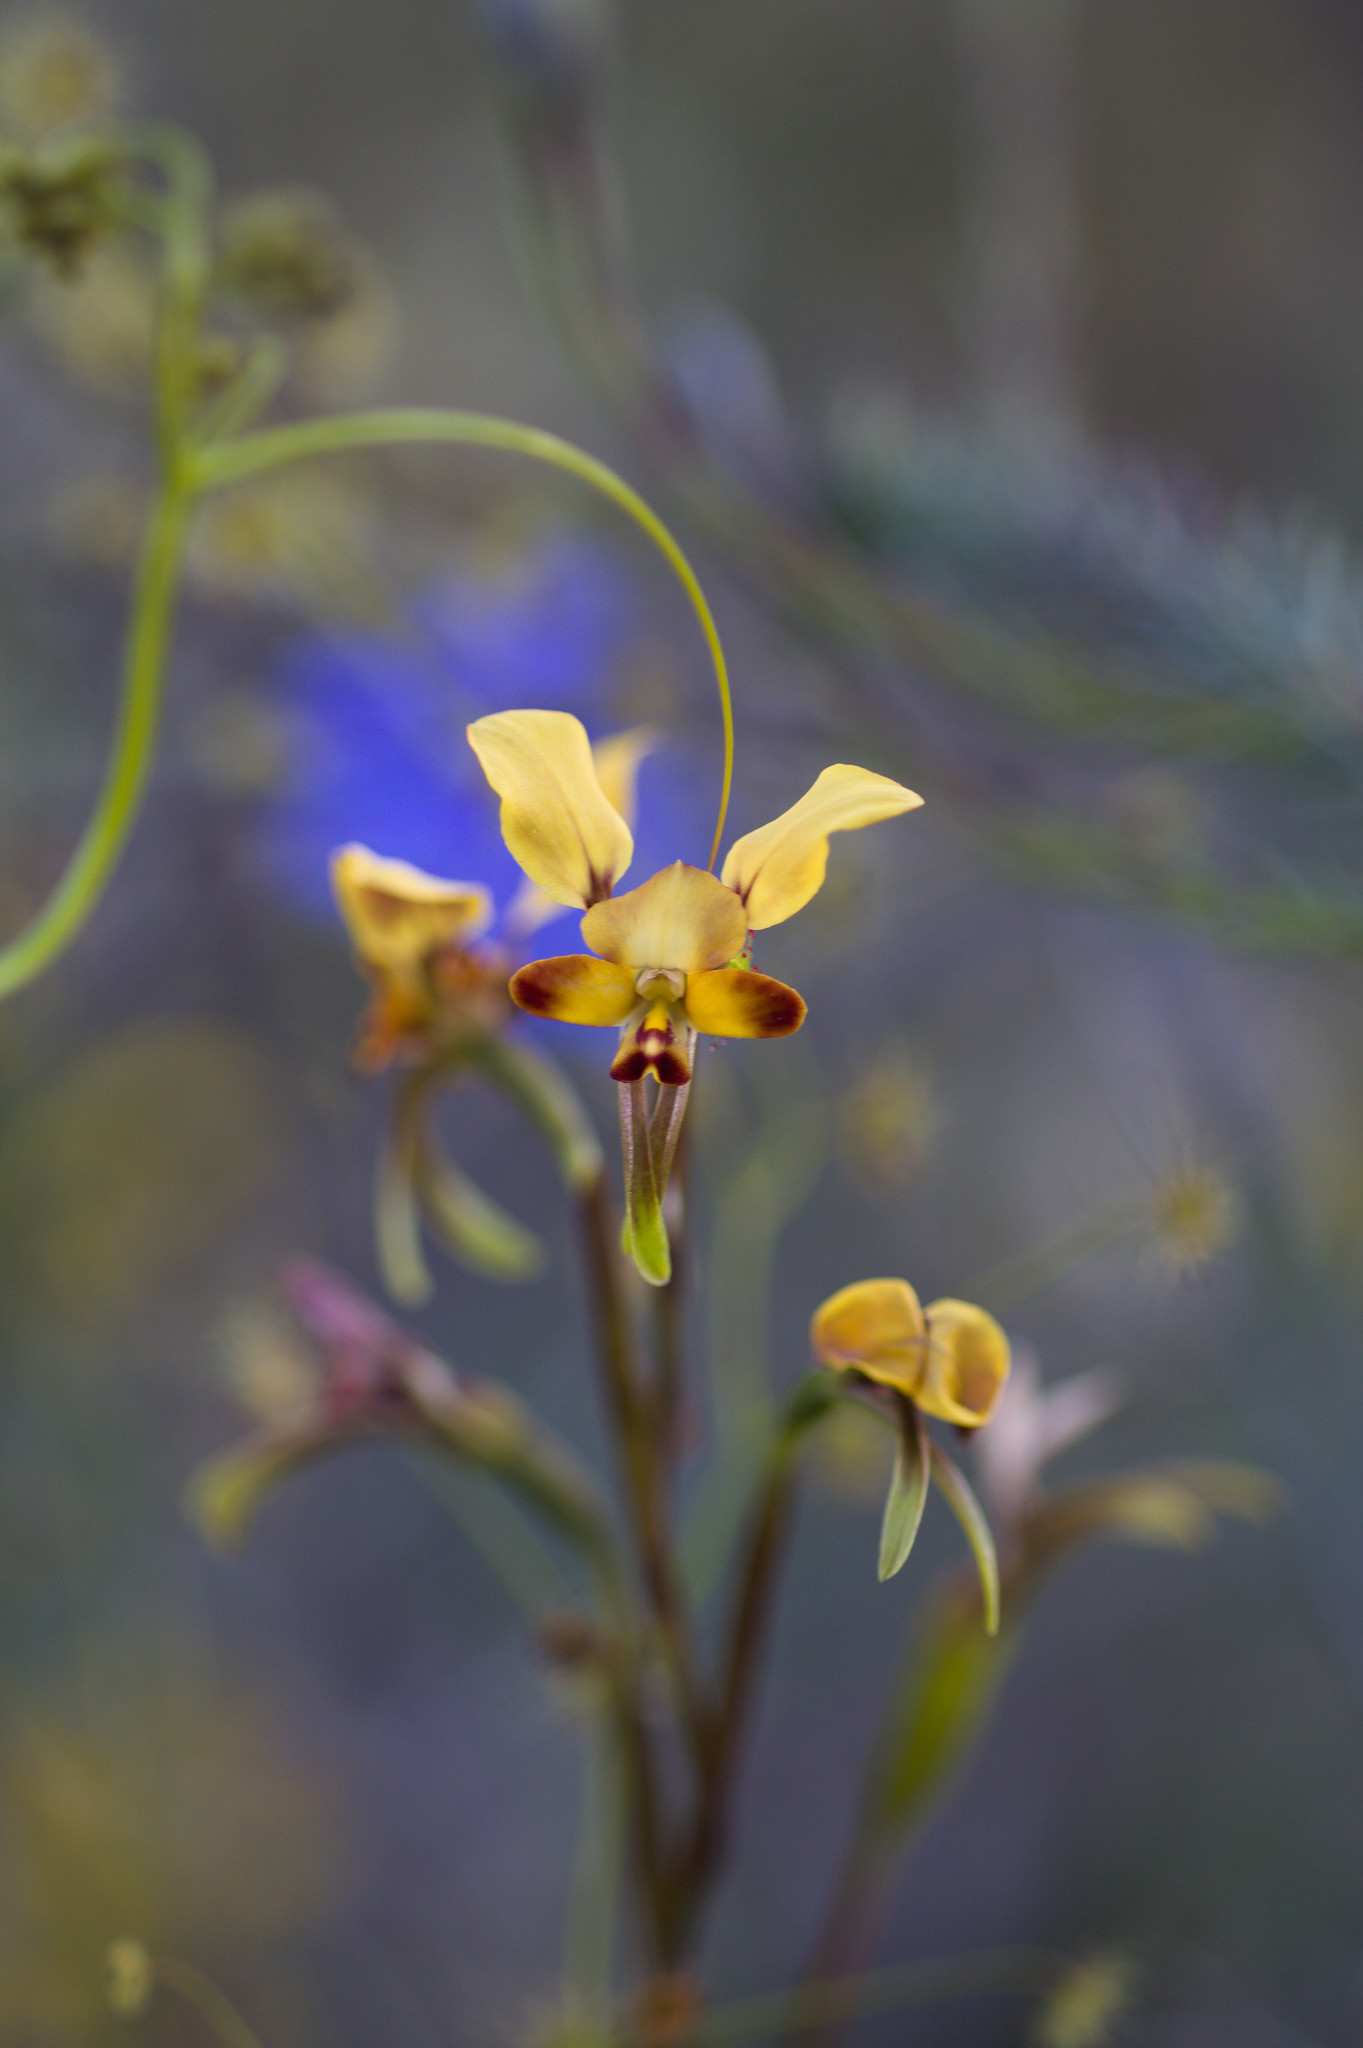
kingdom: Plantae
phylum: Tracheophyta
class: Liliopsida
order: Asparagales
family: Orchidaceae
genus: Diuris
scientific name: Diuris porrifolia
